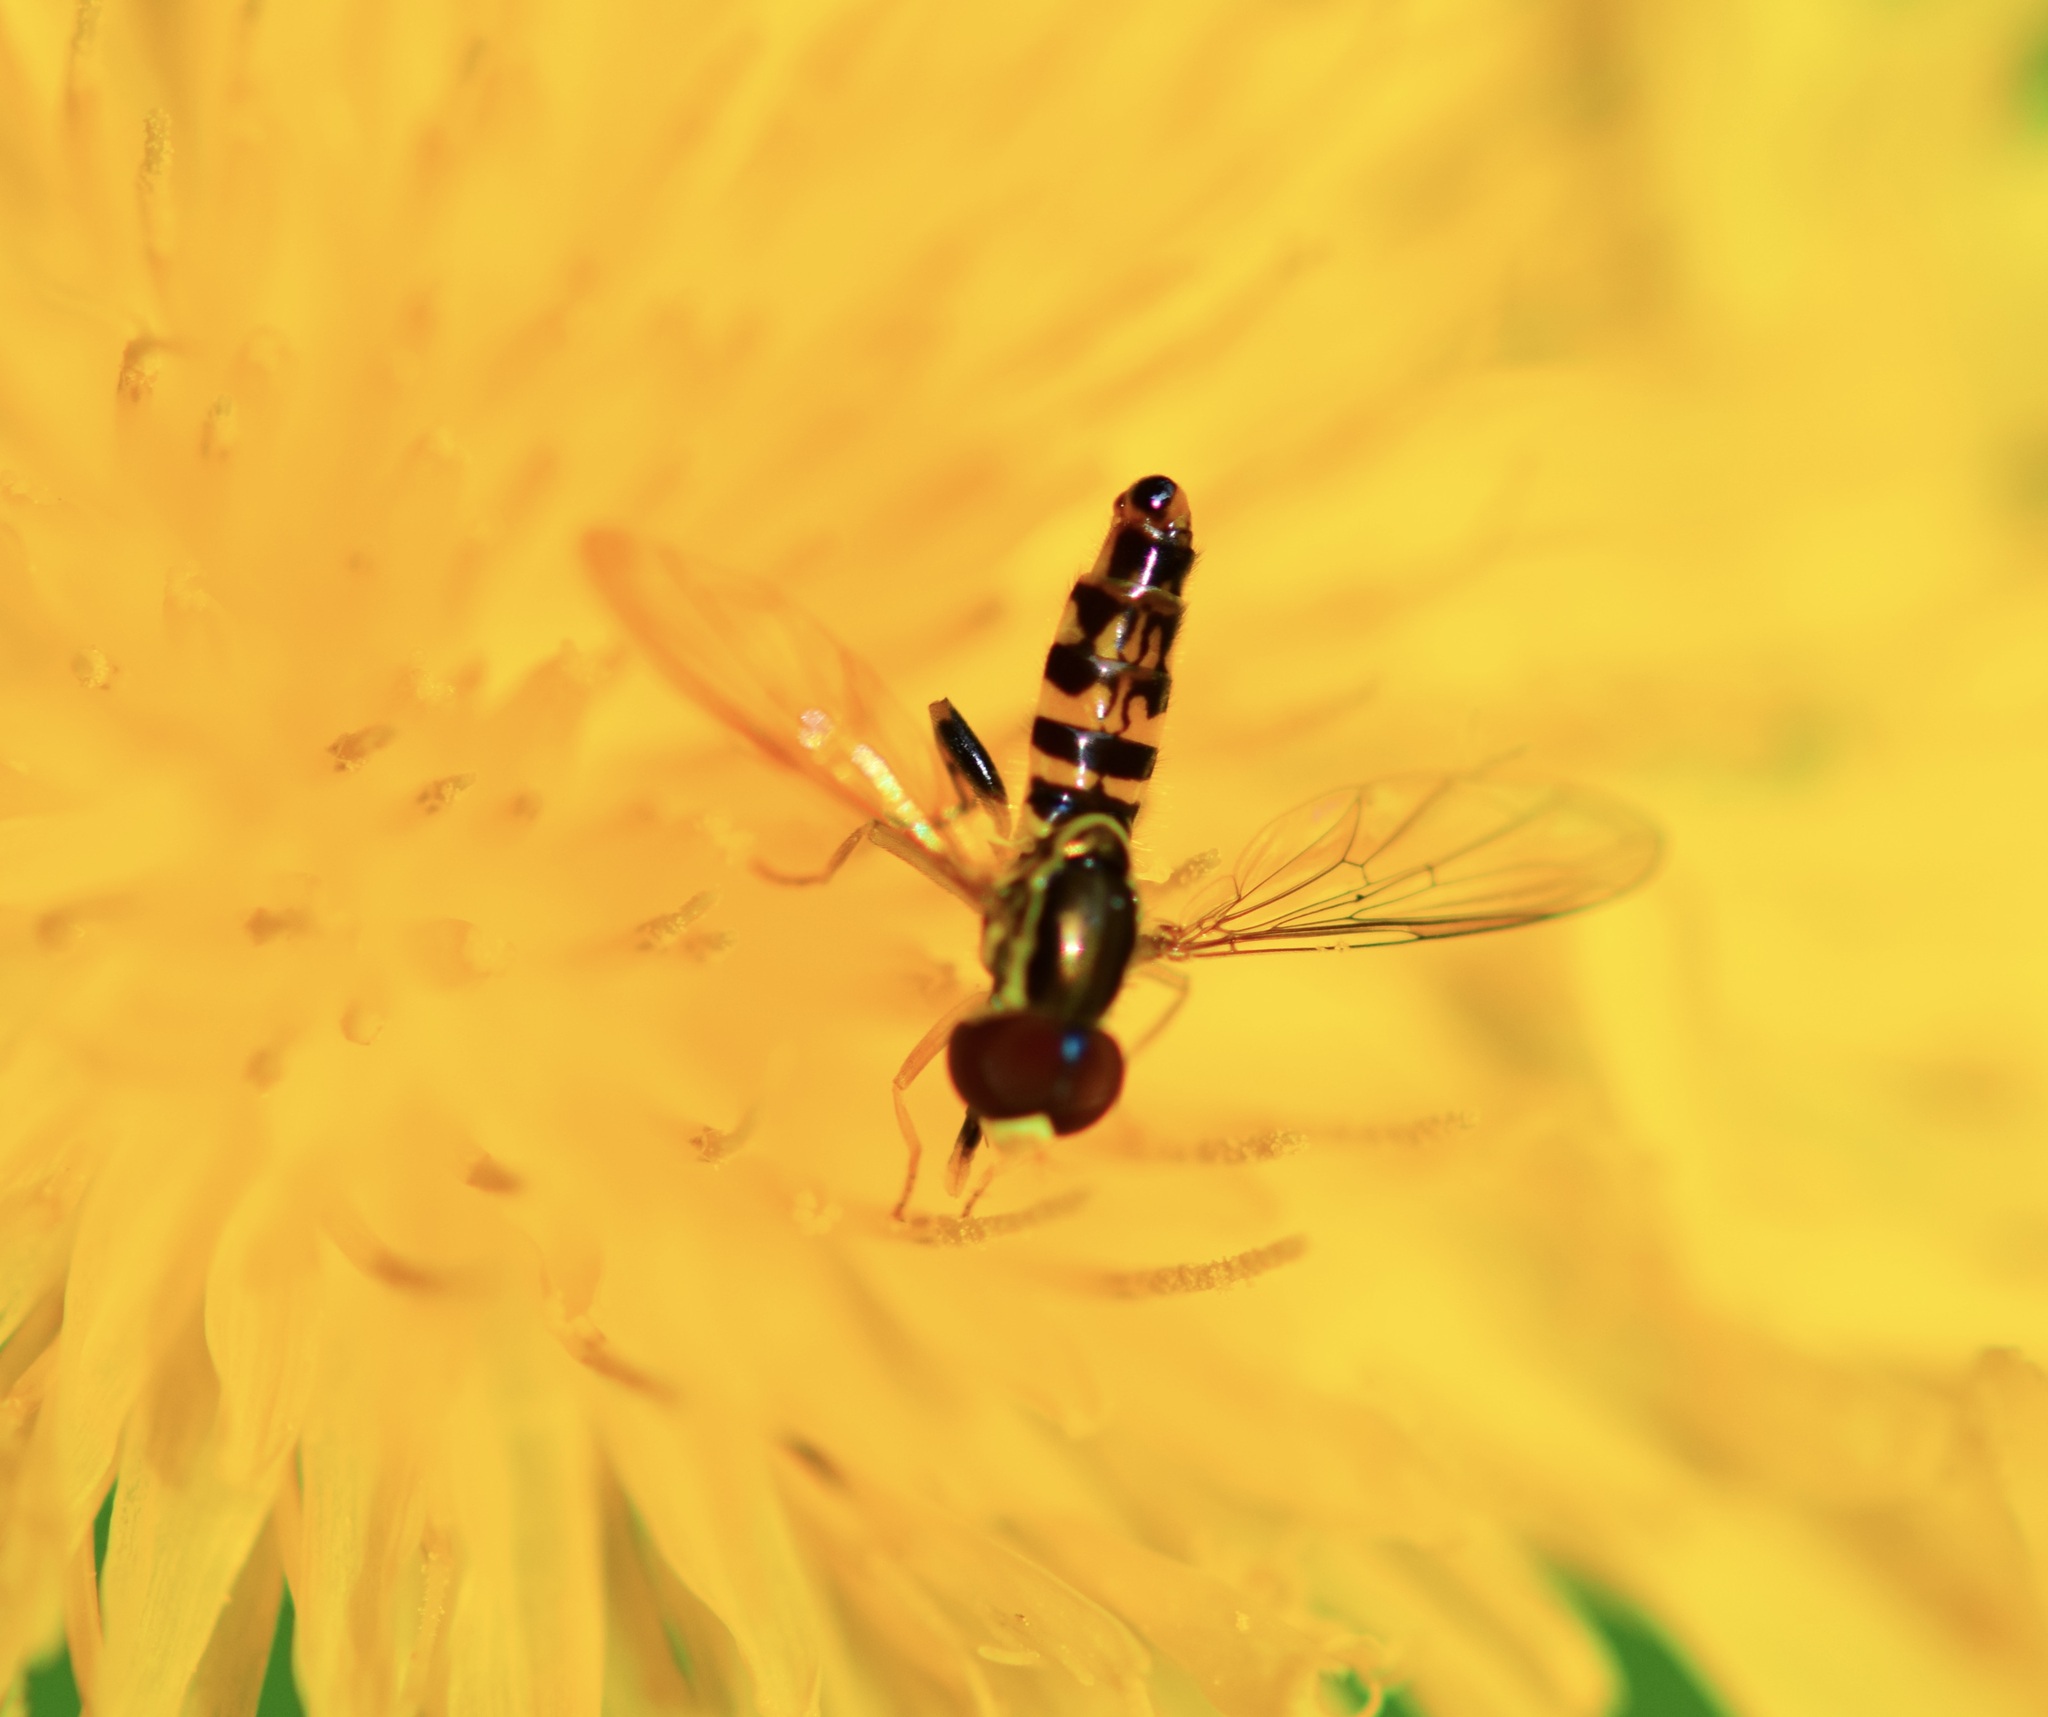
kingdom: Animalia
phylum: Arthropoda
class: Insecta
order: Diptera
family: Syrphidae
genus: Toxomerus
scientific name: Toxomerus geminatus
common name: Eastern calligrapher
